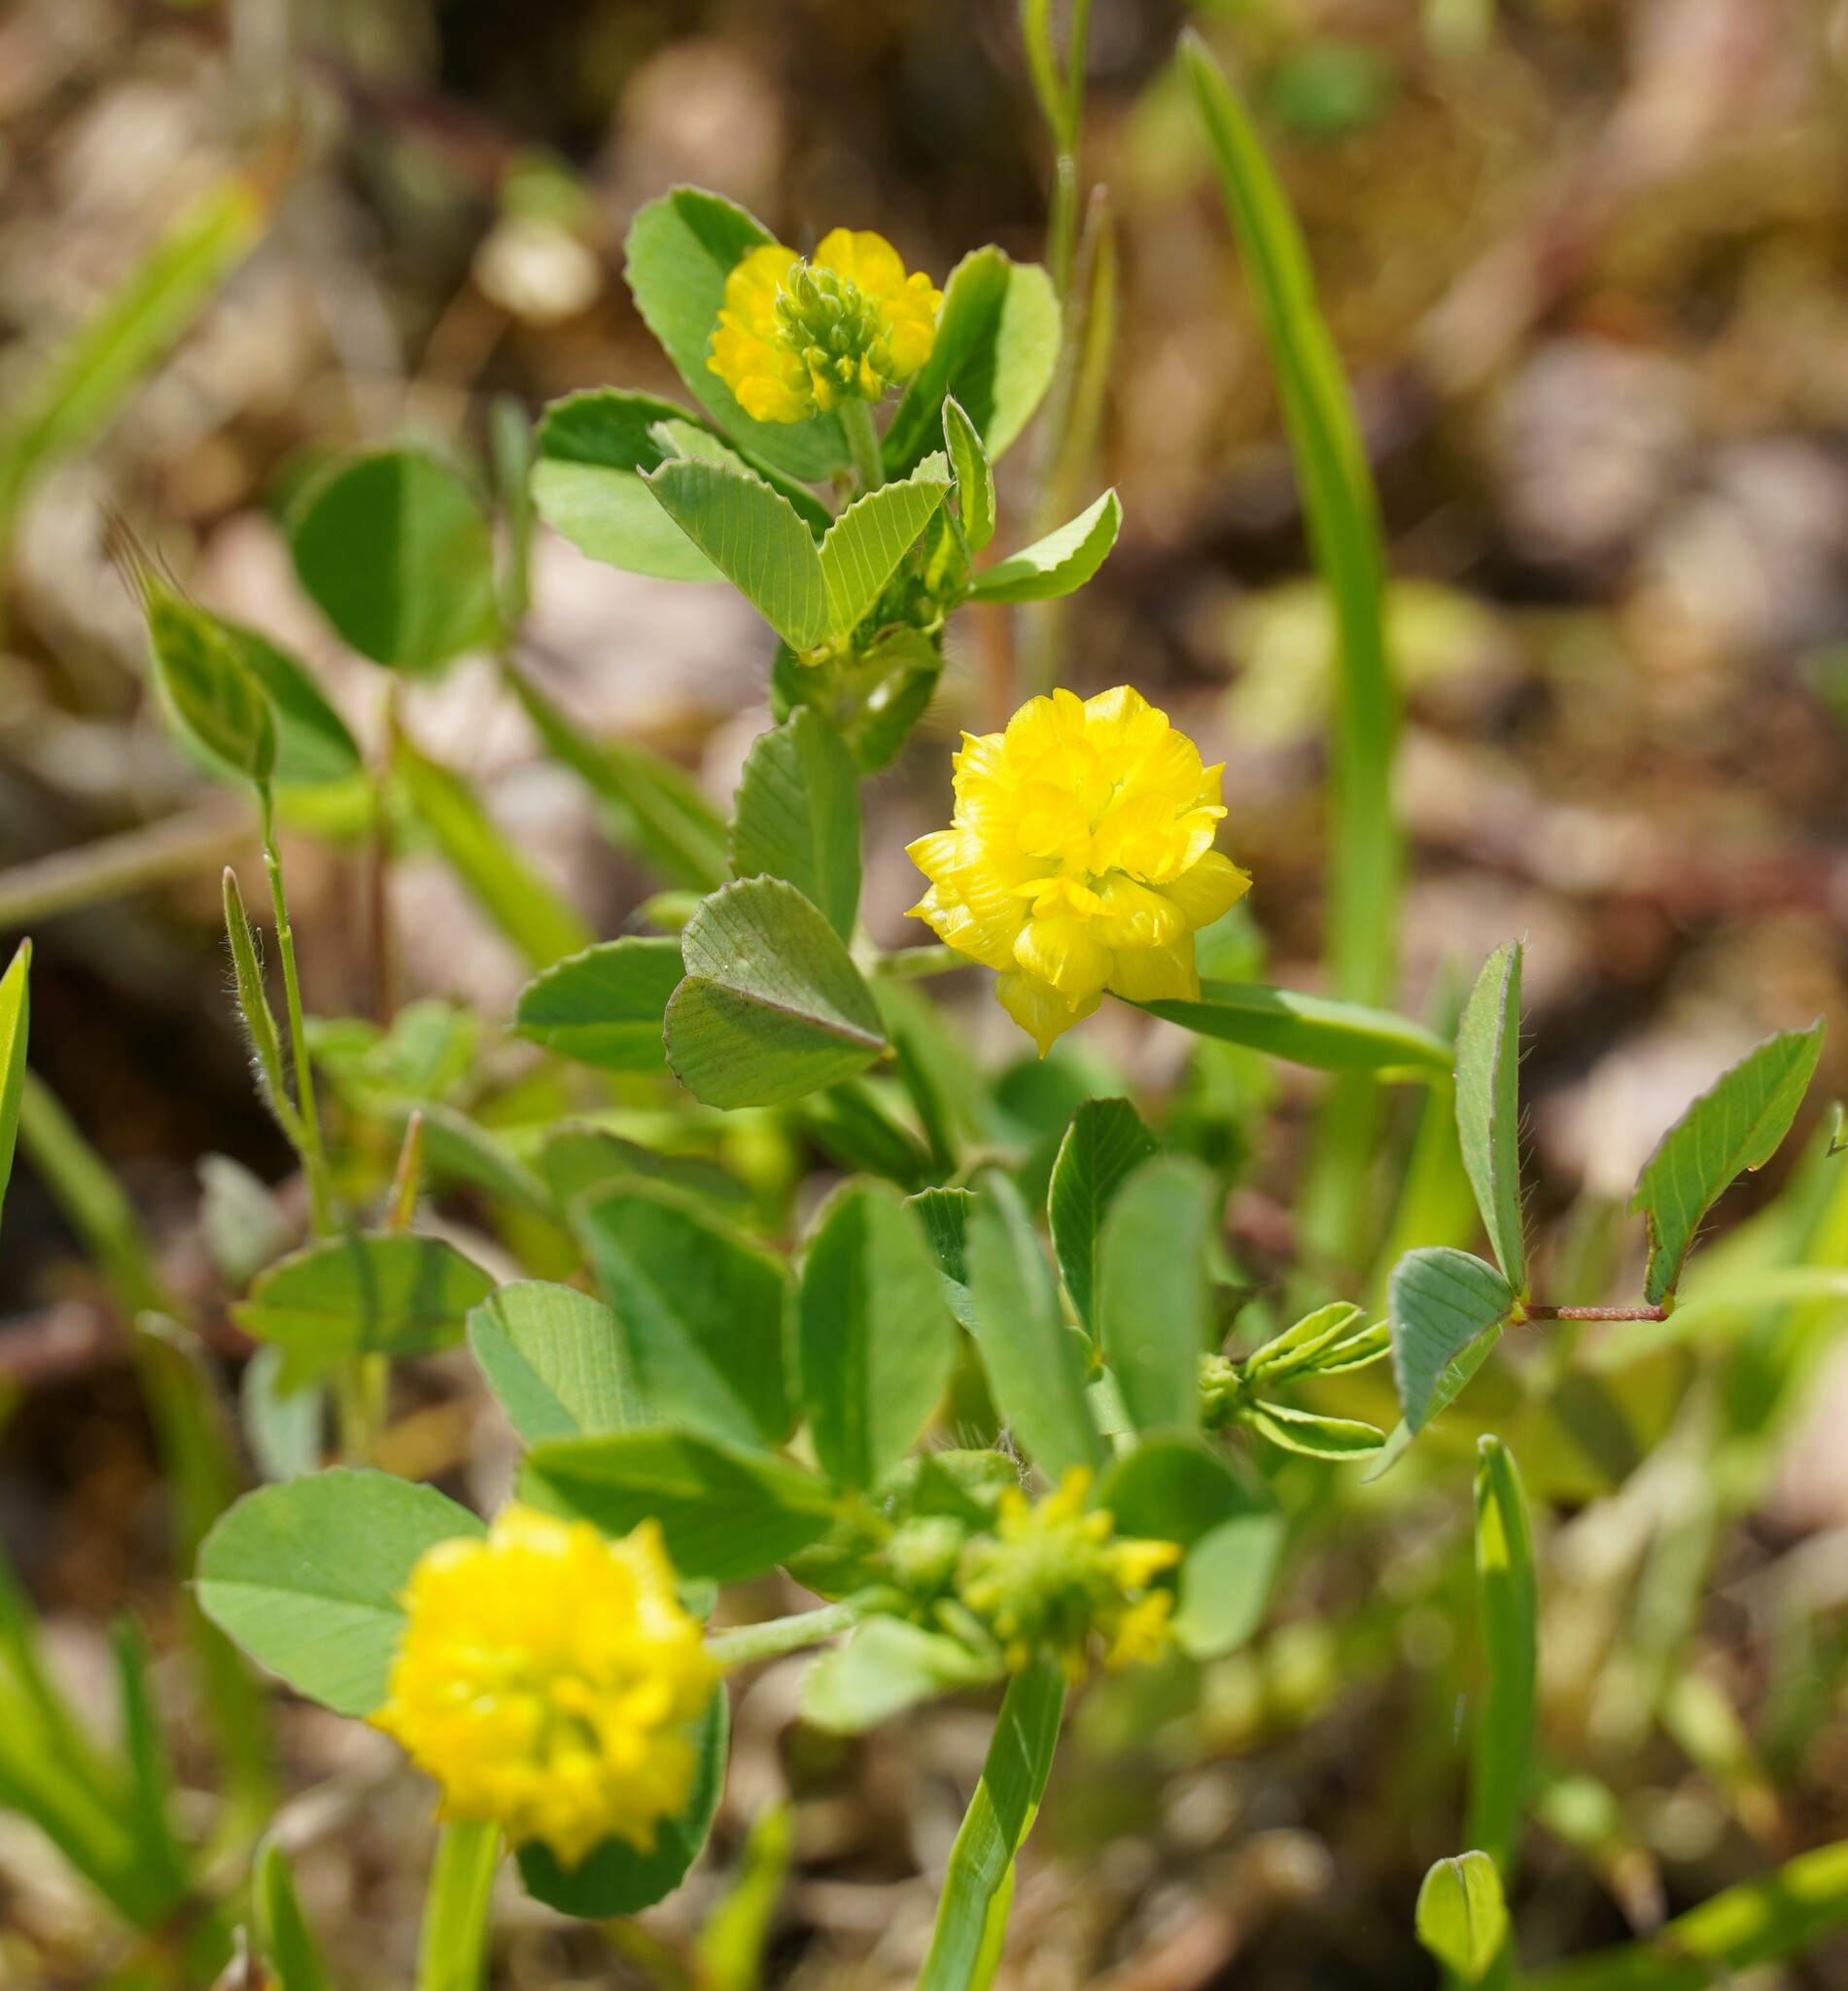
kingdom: Plantae
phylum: Tracheophyta
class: Magnoliopsida
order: Fabales
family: Fabaceae
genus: Trifolium
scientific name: Trifolium campestre
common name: Field clover
